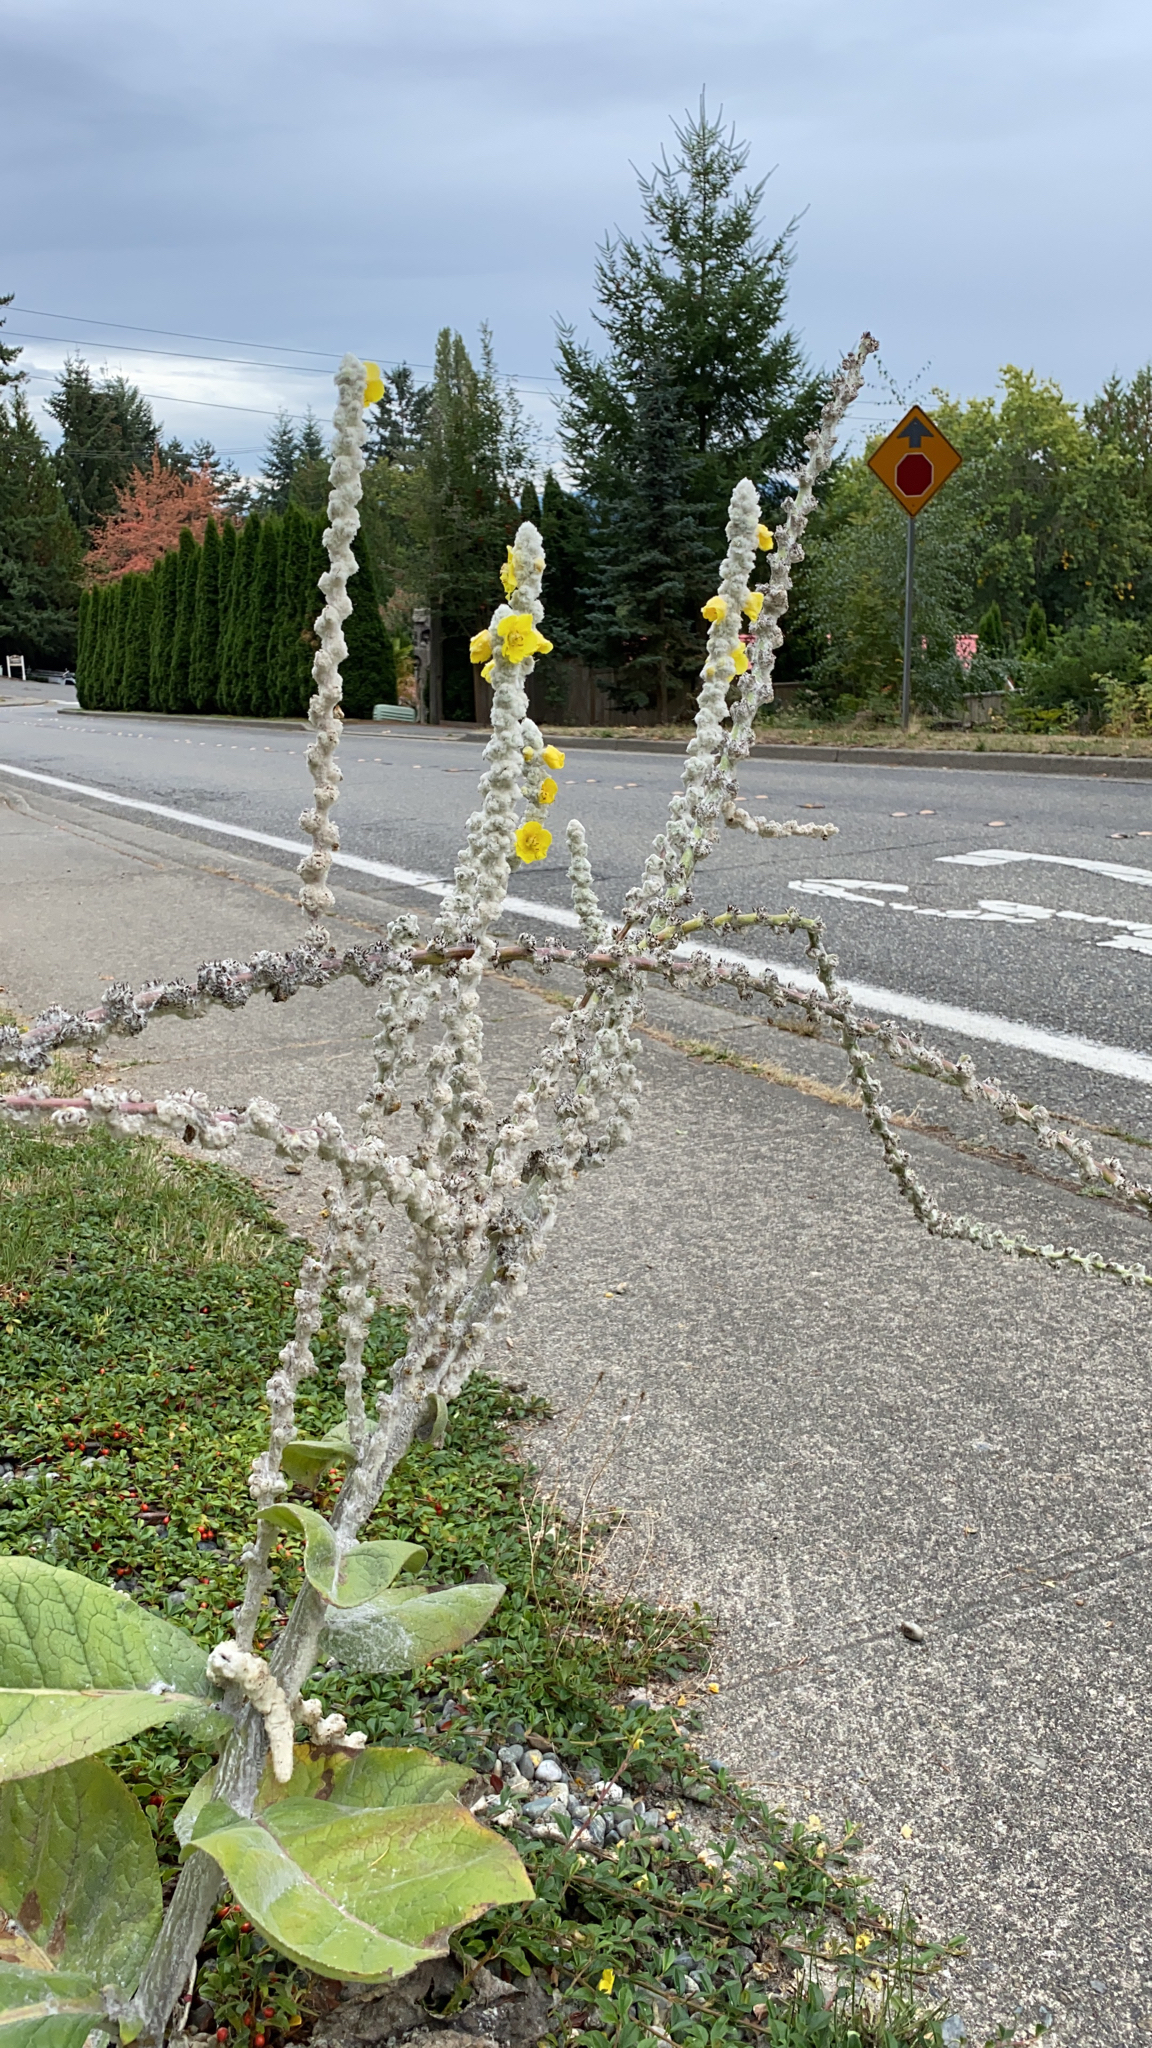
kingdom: Plantae
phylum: Tracheophyta
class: Magnoliopsida
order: Lamiales
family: Scrophulariaceae
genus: Verbascum
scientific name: Verbascum bombyciferum
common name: Broussa mullein
